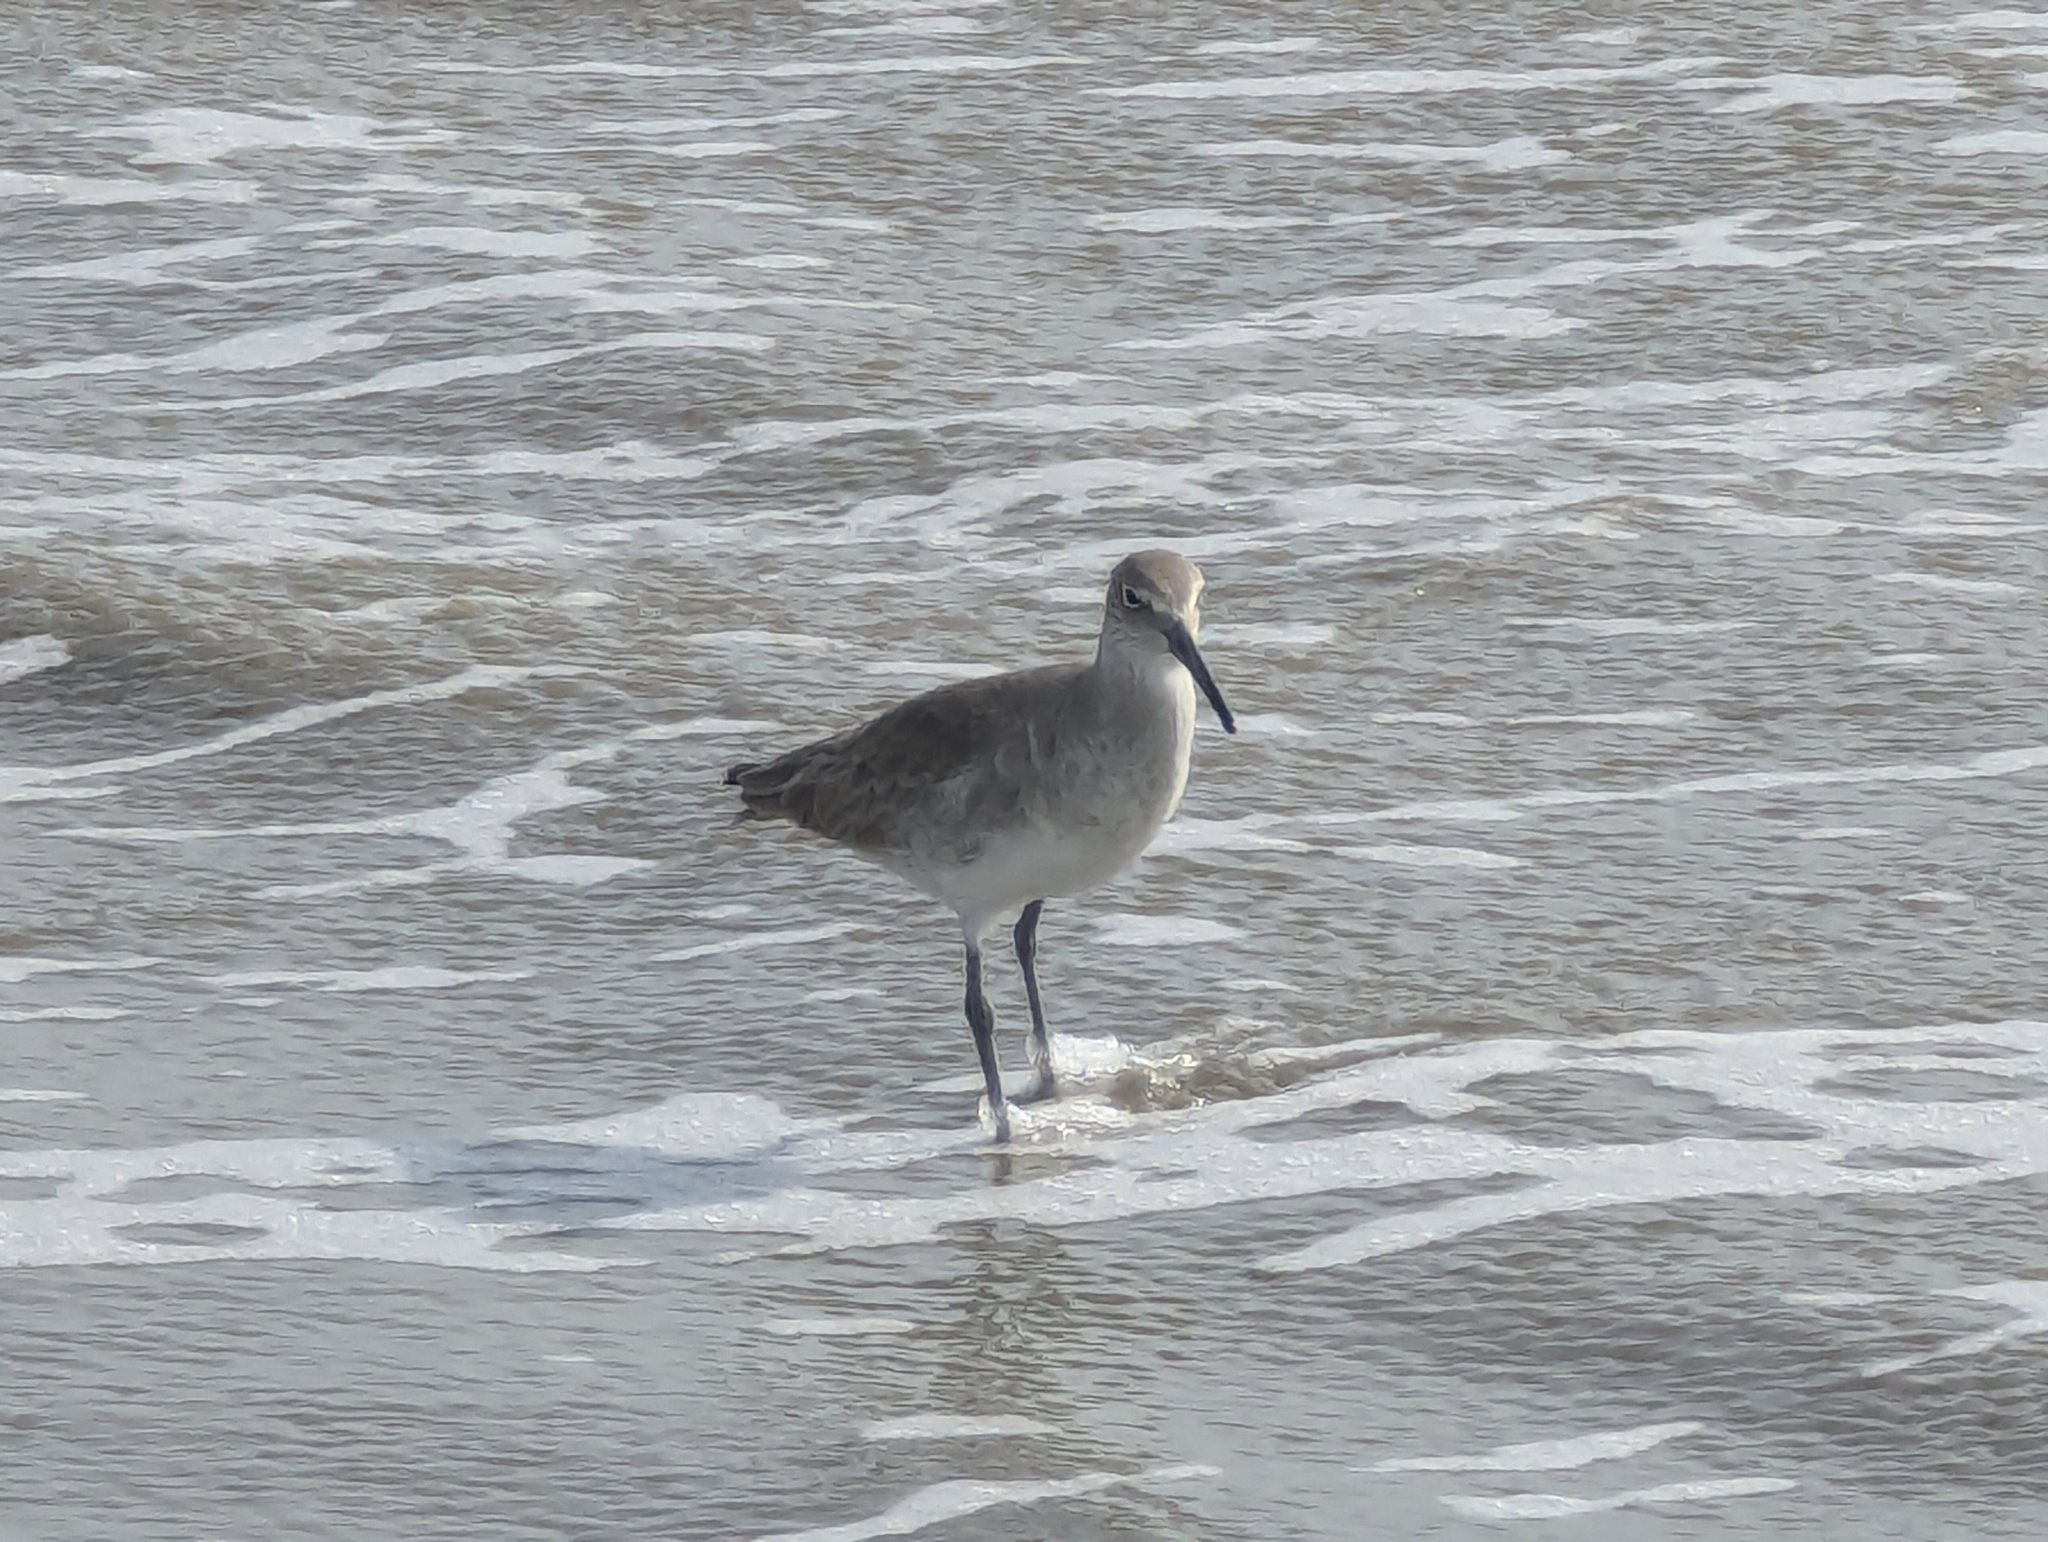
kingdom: Animalia
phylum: Chordata
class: Aves
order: Charadriiformes
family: Scolopacidae
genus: Tringa
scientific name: Tringa semipalmata
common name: Willet
